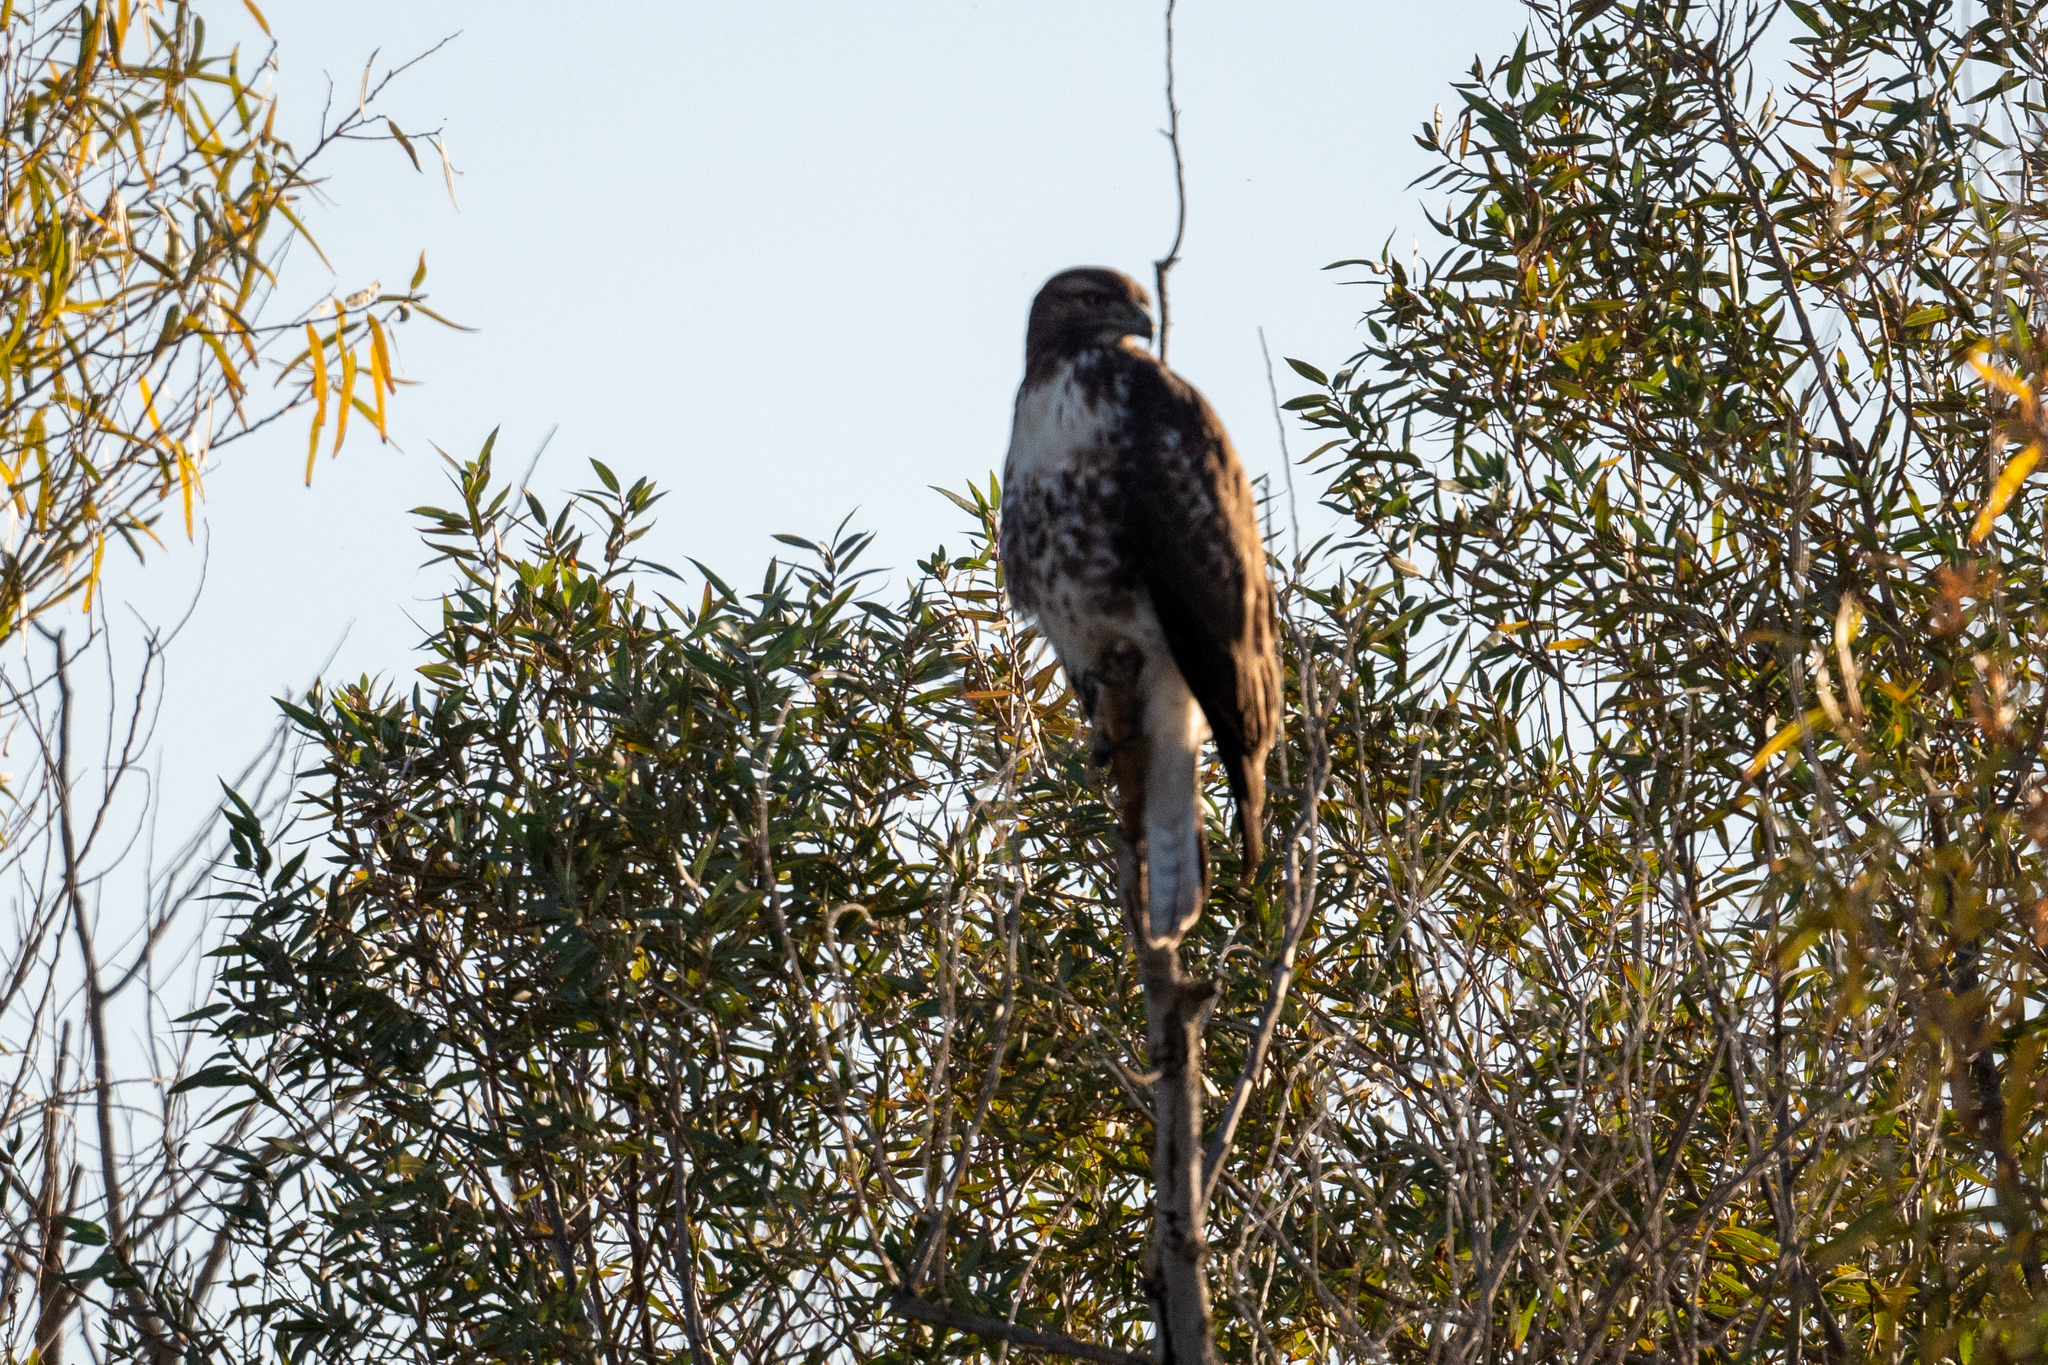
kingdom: Animalia
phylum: Chordata
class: Aves
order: Accipitriformes
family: Accipitridae
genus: Buteo
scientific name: Buteo jamaicensis
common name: Red-tailed hawk
